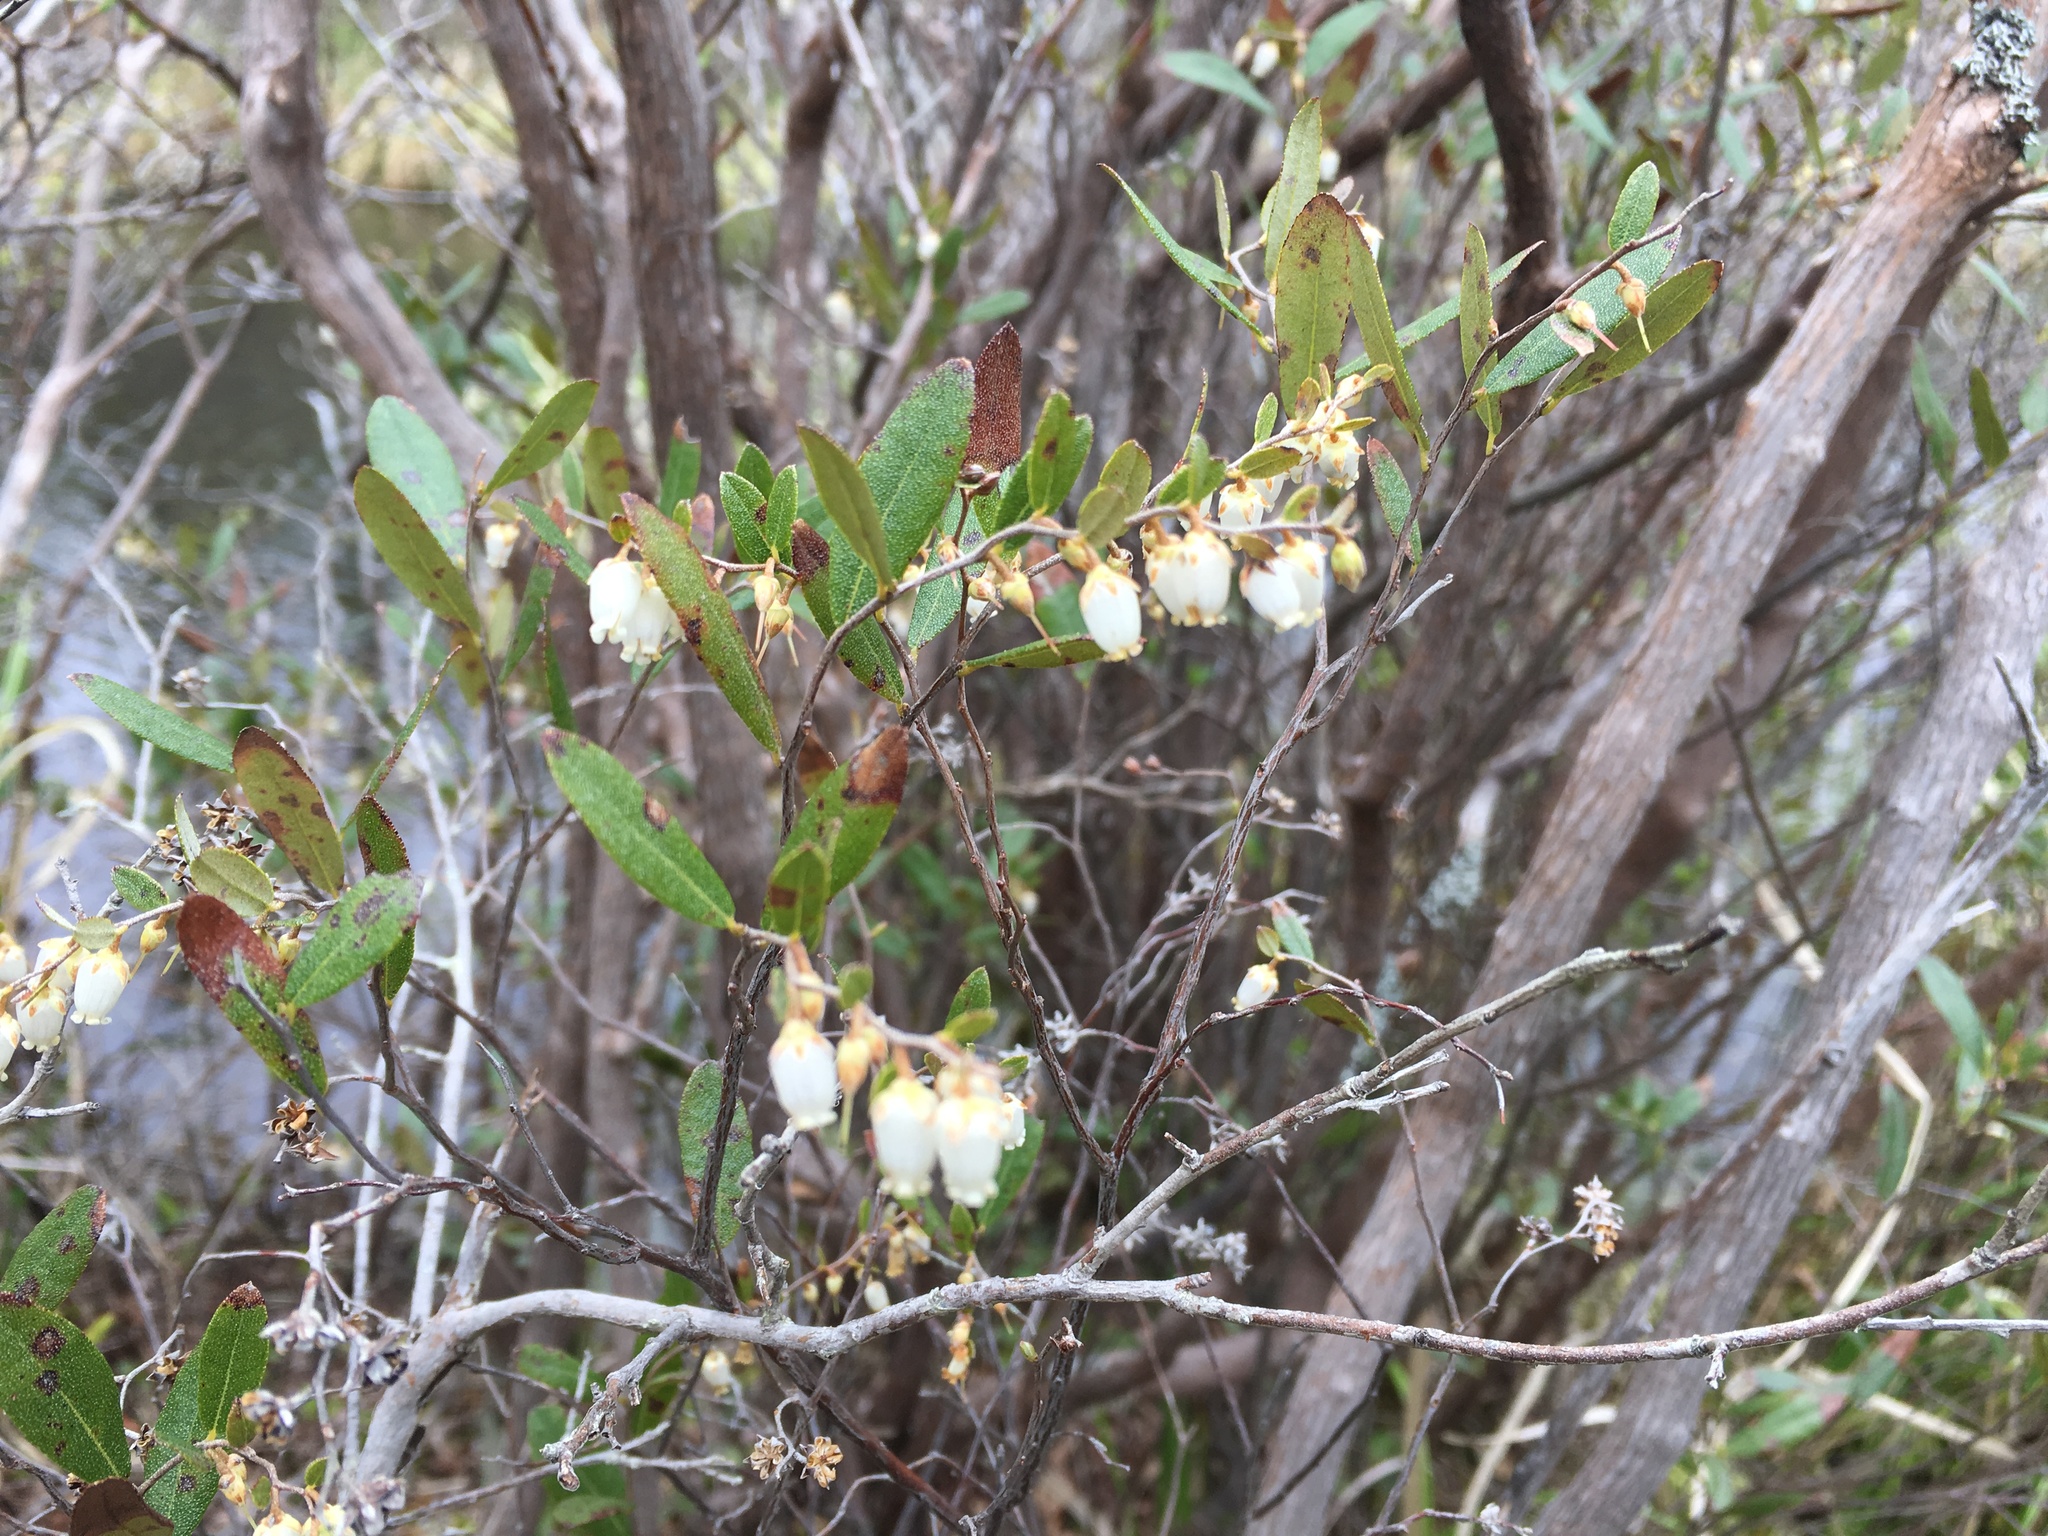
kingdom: Plantae
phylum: Tracheophyta
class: Magnoliopsida
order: Ericales
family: Ericaceae
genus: Chamaedaphne
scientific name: Chamaedaphne calyculata
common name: Leatherleaf
